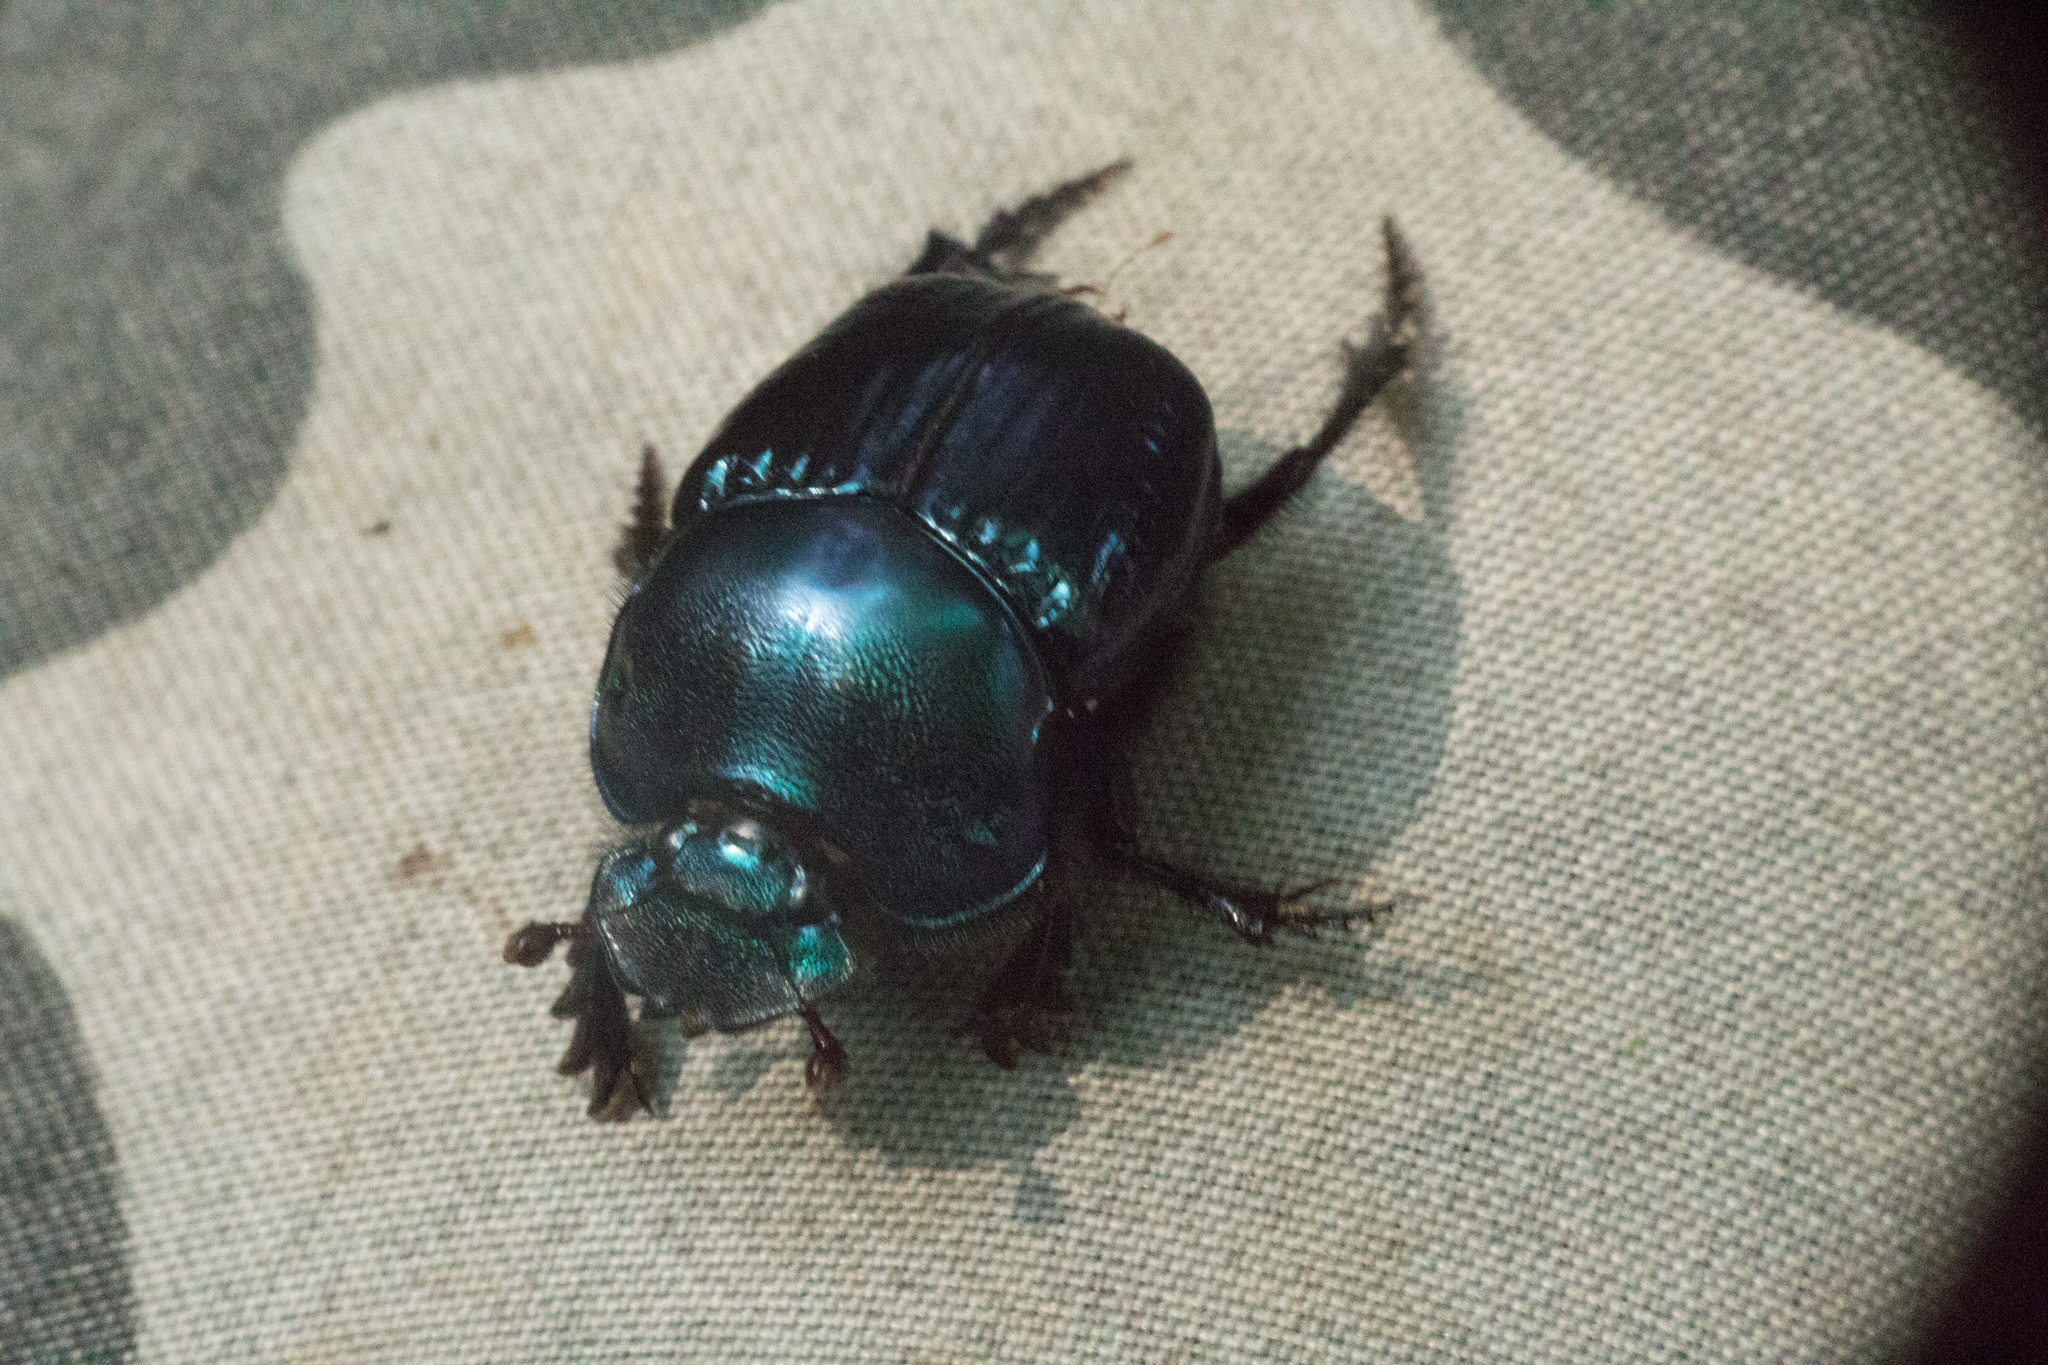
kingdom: Animalia
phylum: Arthropoda
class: Insecta
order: Coleoptera
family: Scarabaeidae
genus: Coprophanaeus
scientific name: Coprophanaeus saphirinus
